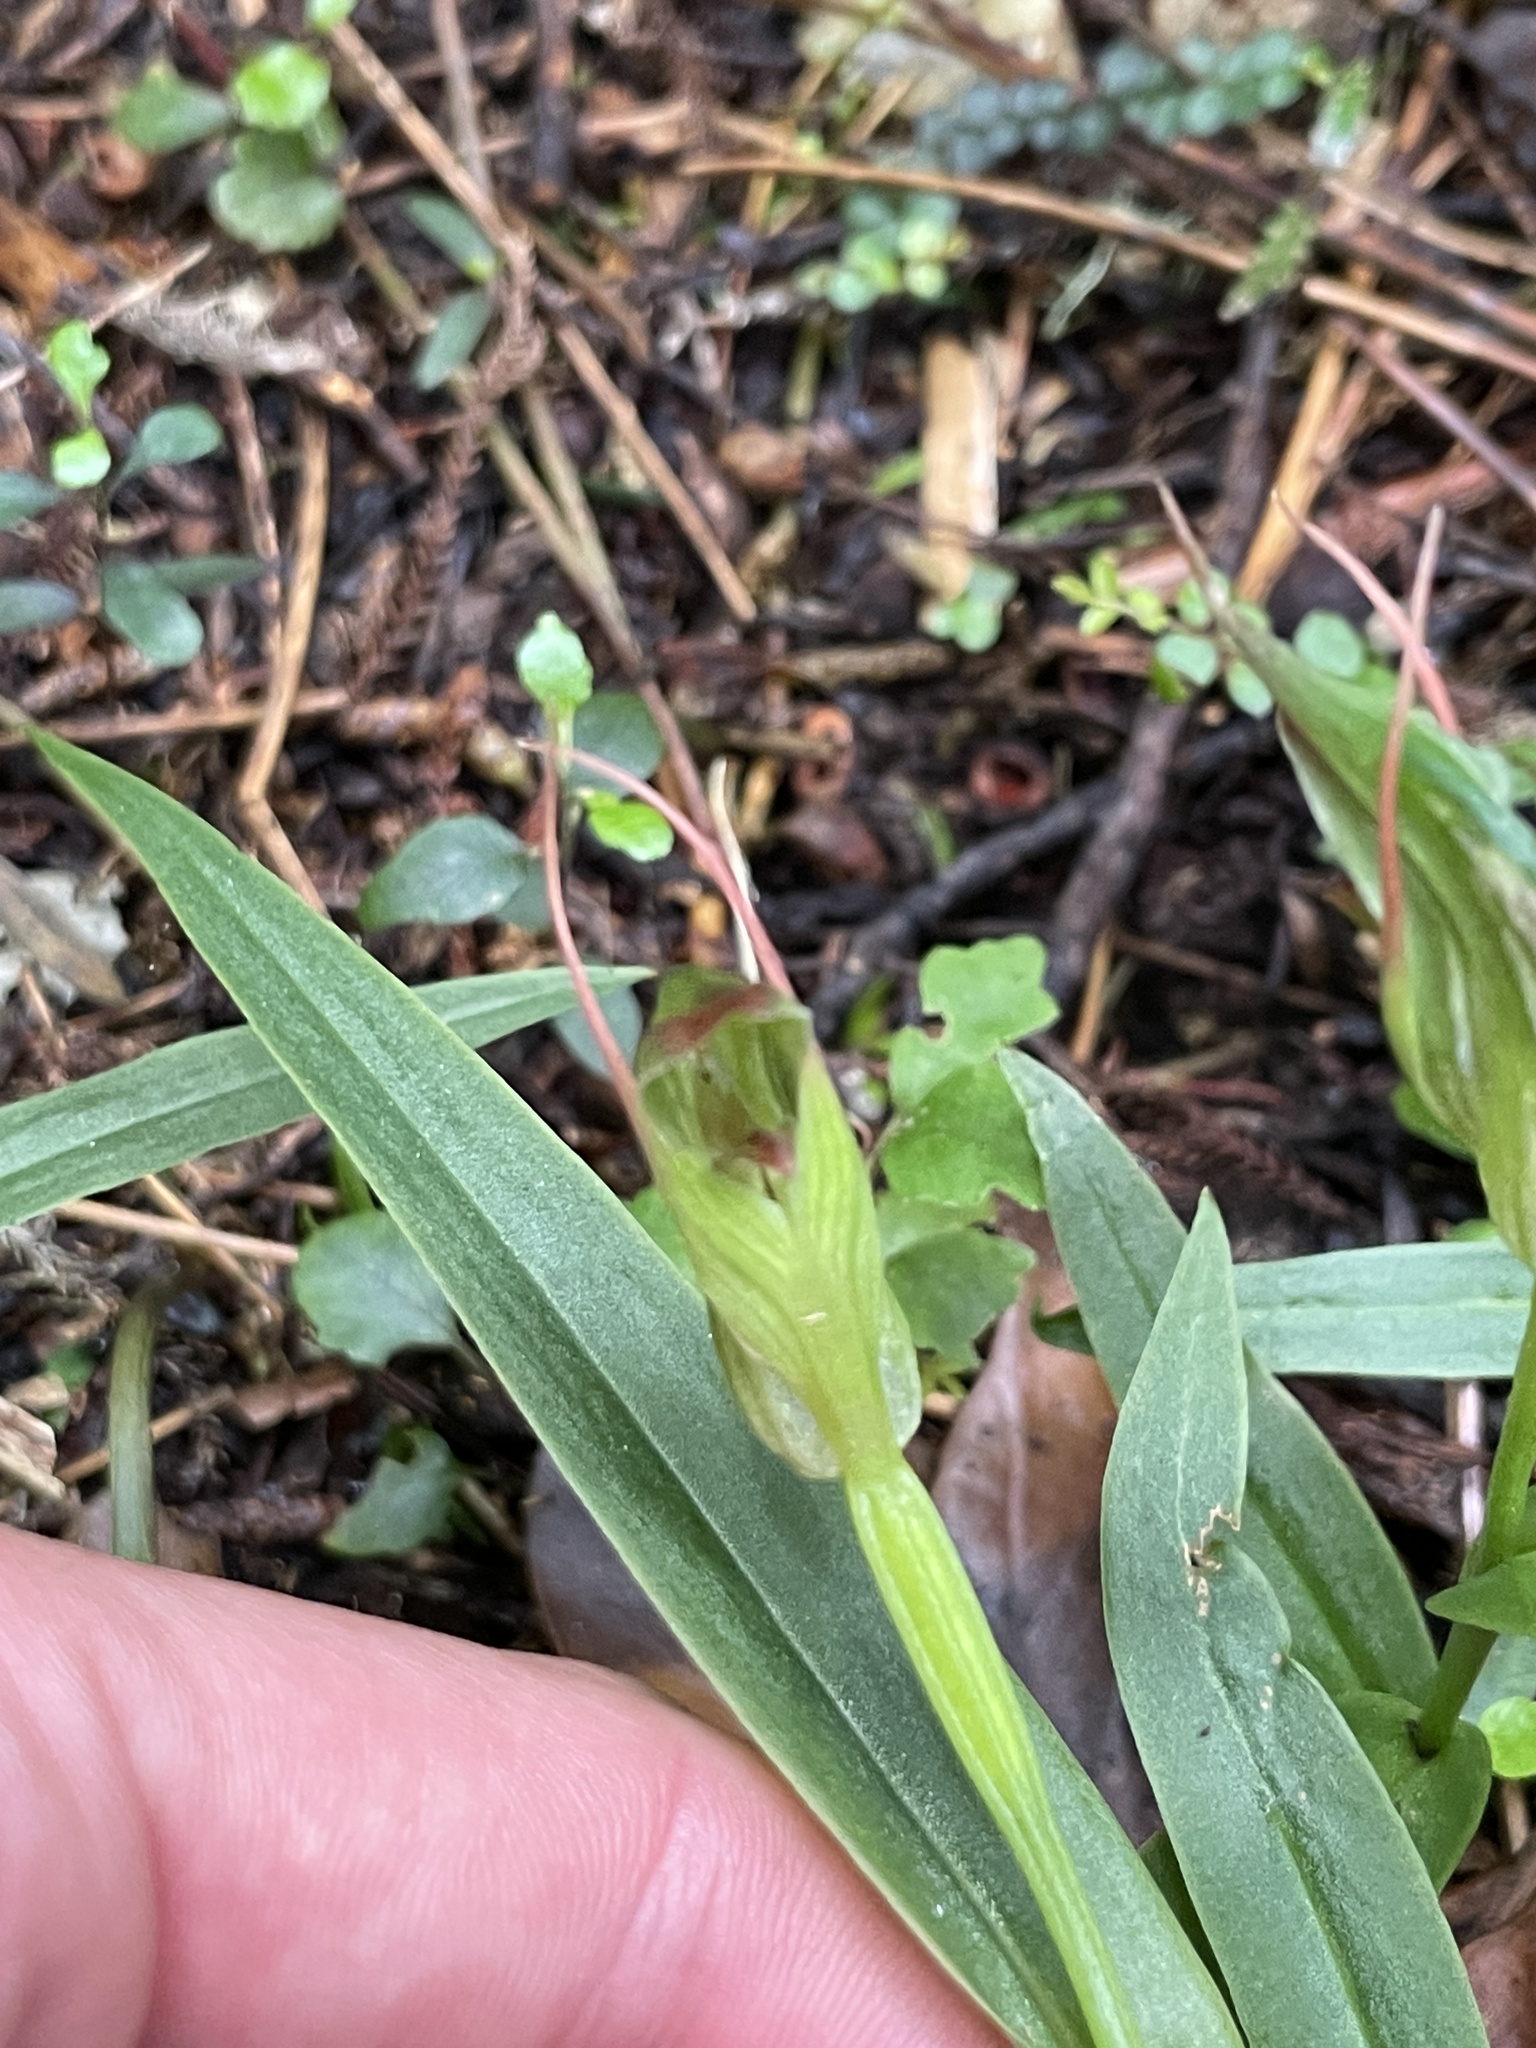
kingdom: Plantae
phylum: Tracheophyta
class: Liliopsida
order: Asparagales
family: Orchidaceae
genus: Pterostylis
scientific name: Pterostylis auriculata
